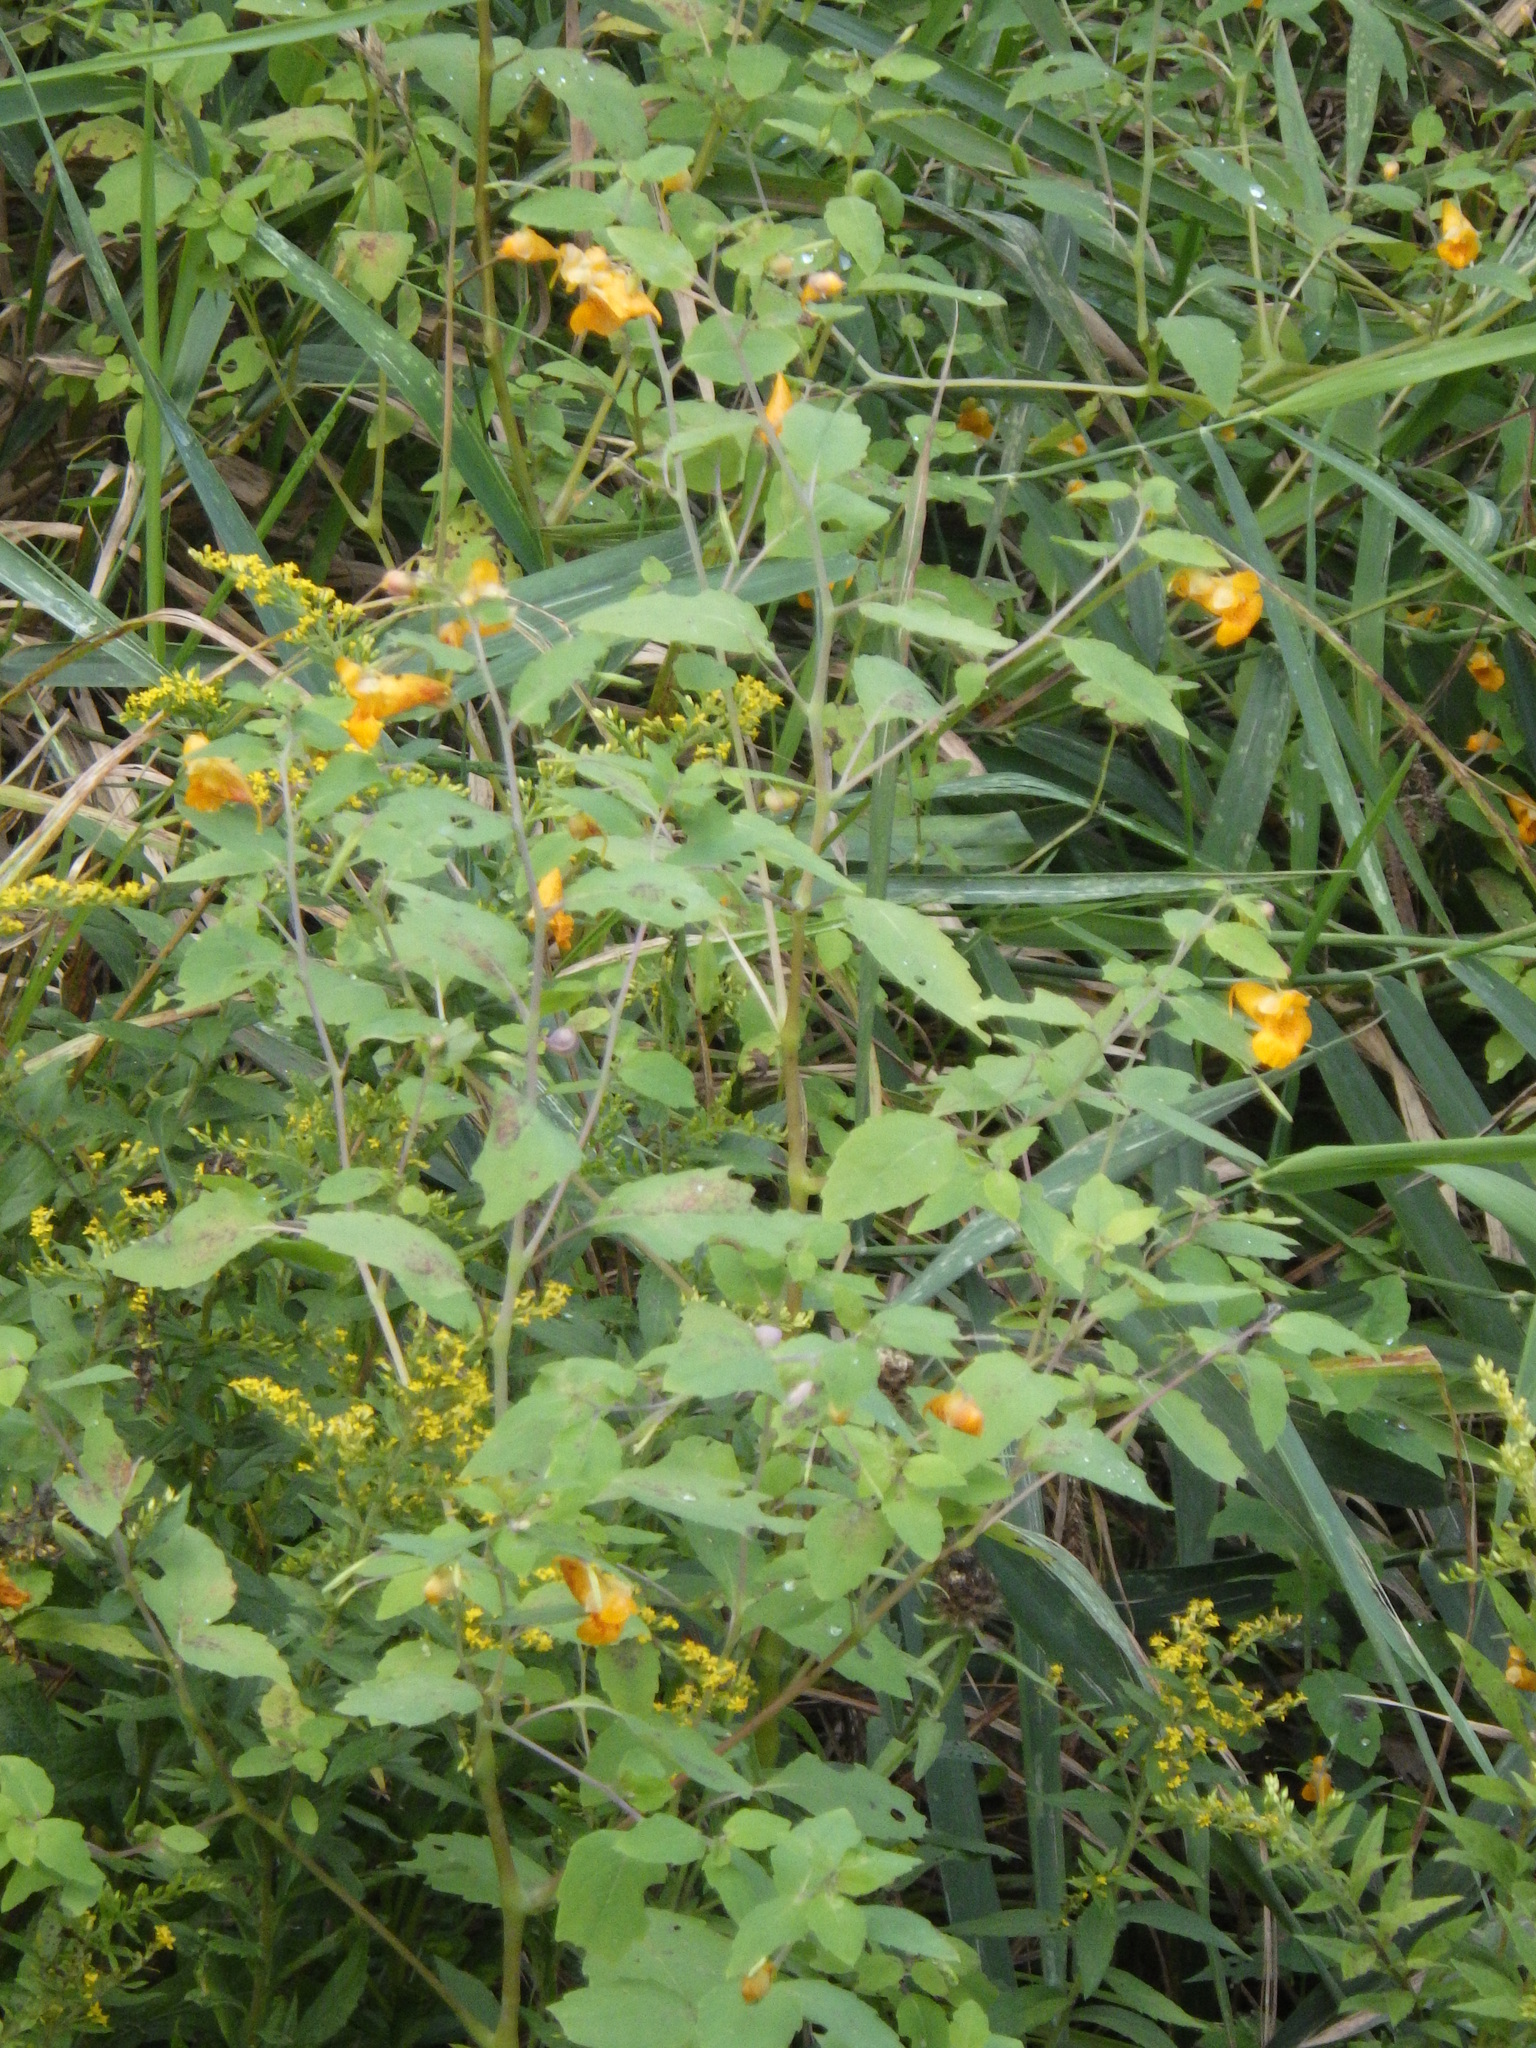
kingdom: Plantae
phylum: Tracheophyta
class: Magnoliopsida
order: Ericales
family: Balsaminaceae
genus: Impatiens
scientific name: Impatiens capensis
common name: Orange balsam
